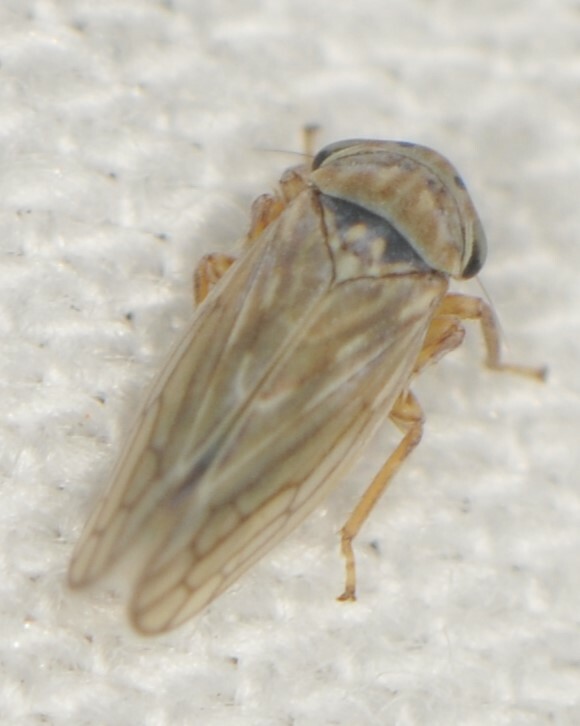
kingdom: Animalia
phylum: Arthropoda
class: Insecta
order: Hemiptera
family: Cicadellidae
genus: Ceratagallia
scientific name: Ceratagallia
